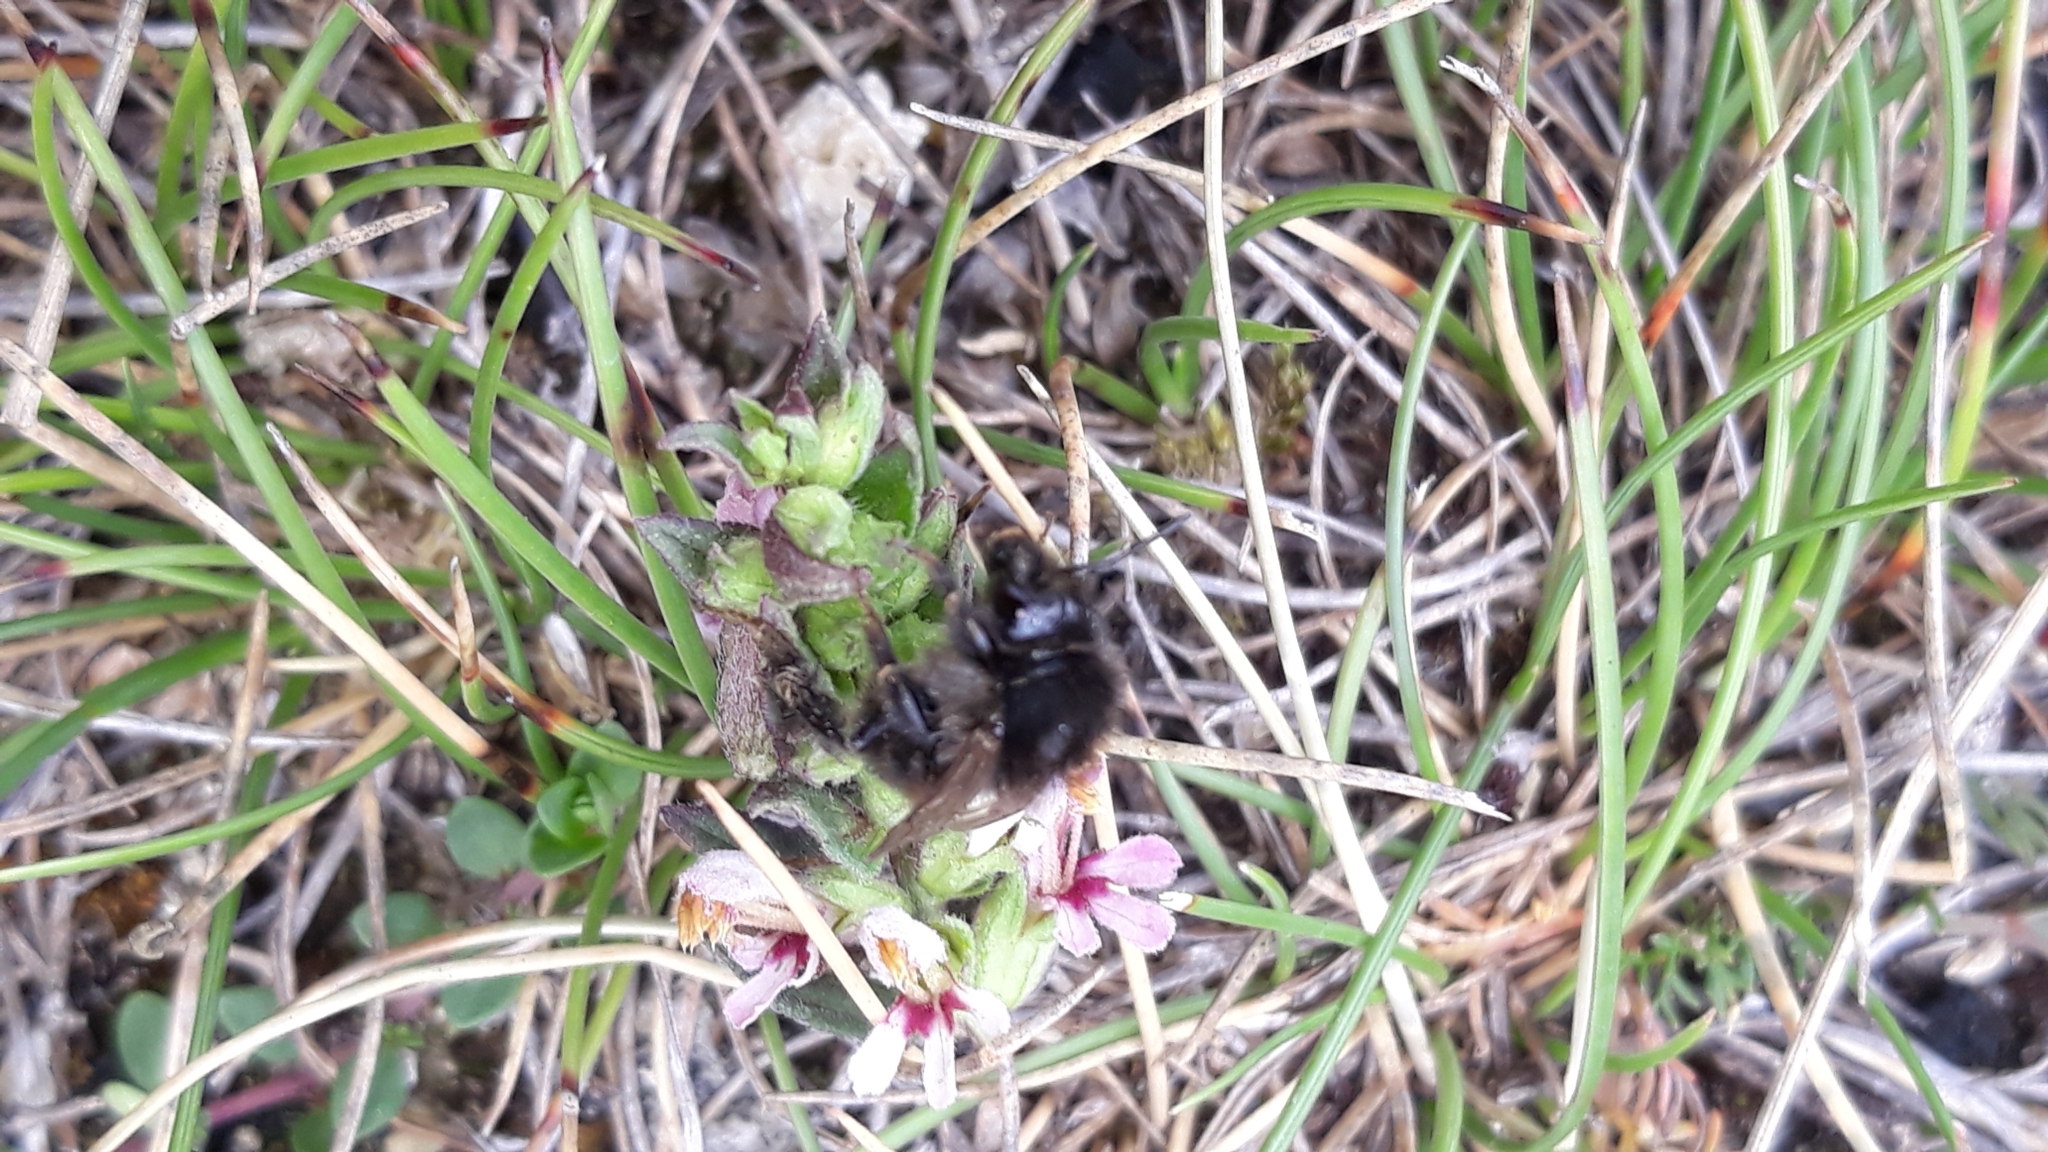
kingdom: Animalia
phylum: Arthropoda
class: Insecta
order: Hymenoptera
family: Apidae
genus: Bombus
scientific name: Bombus humilis
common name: Brown-banded carder-bee
